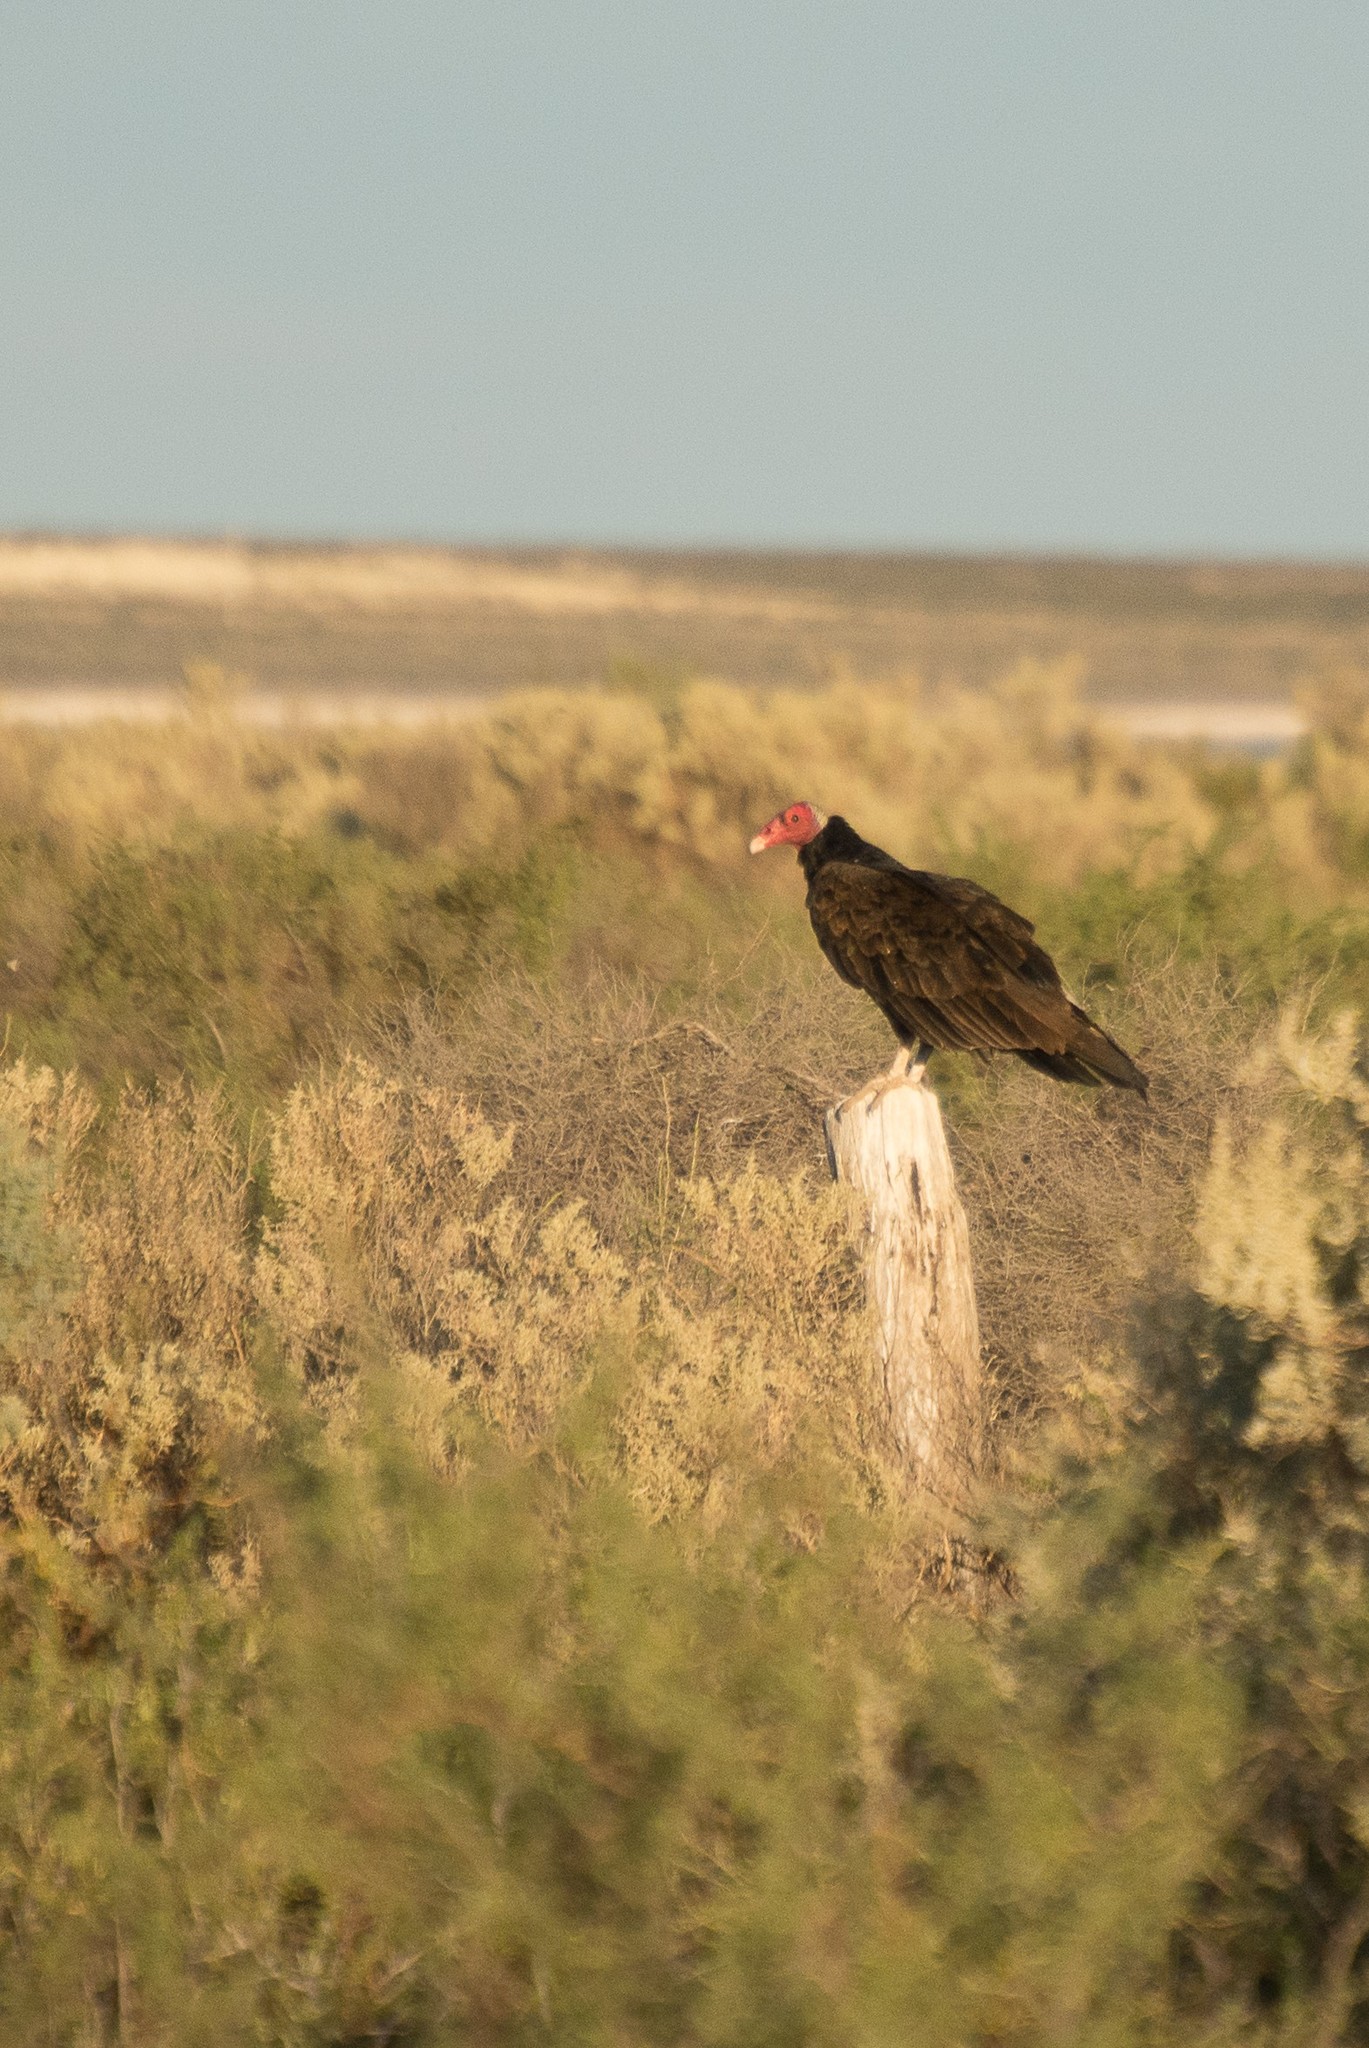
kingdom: Animalia
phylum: Chordata
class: Aves
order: Accipitriformes
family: Cathartidae
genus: Cathartes
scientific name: Cathartes aura
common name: Turkey vulture
